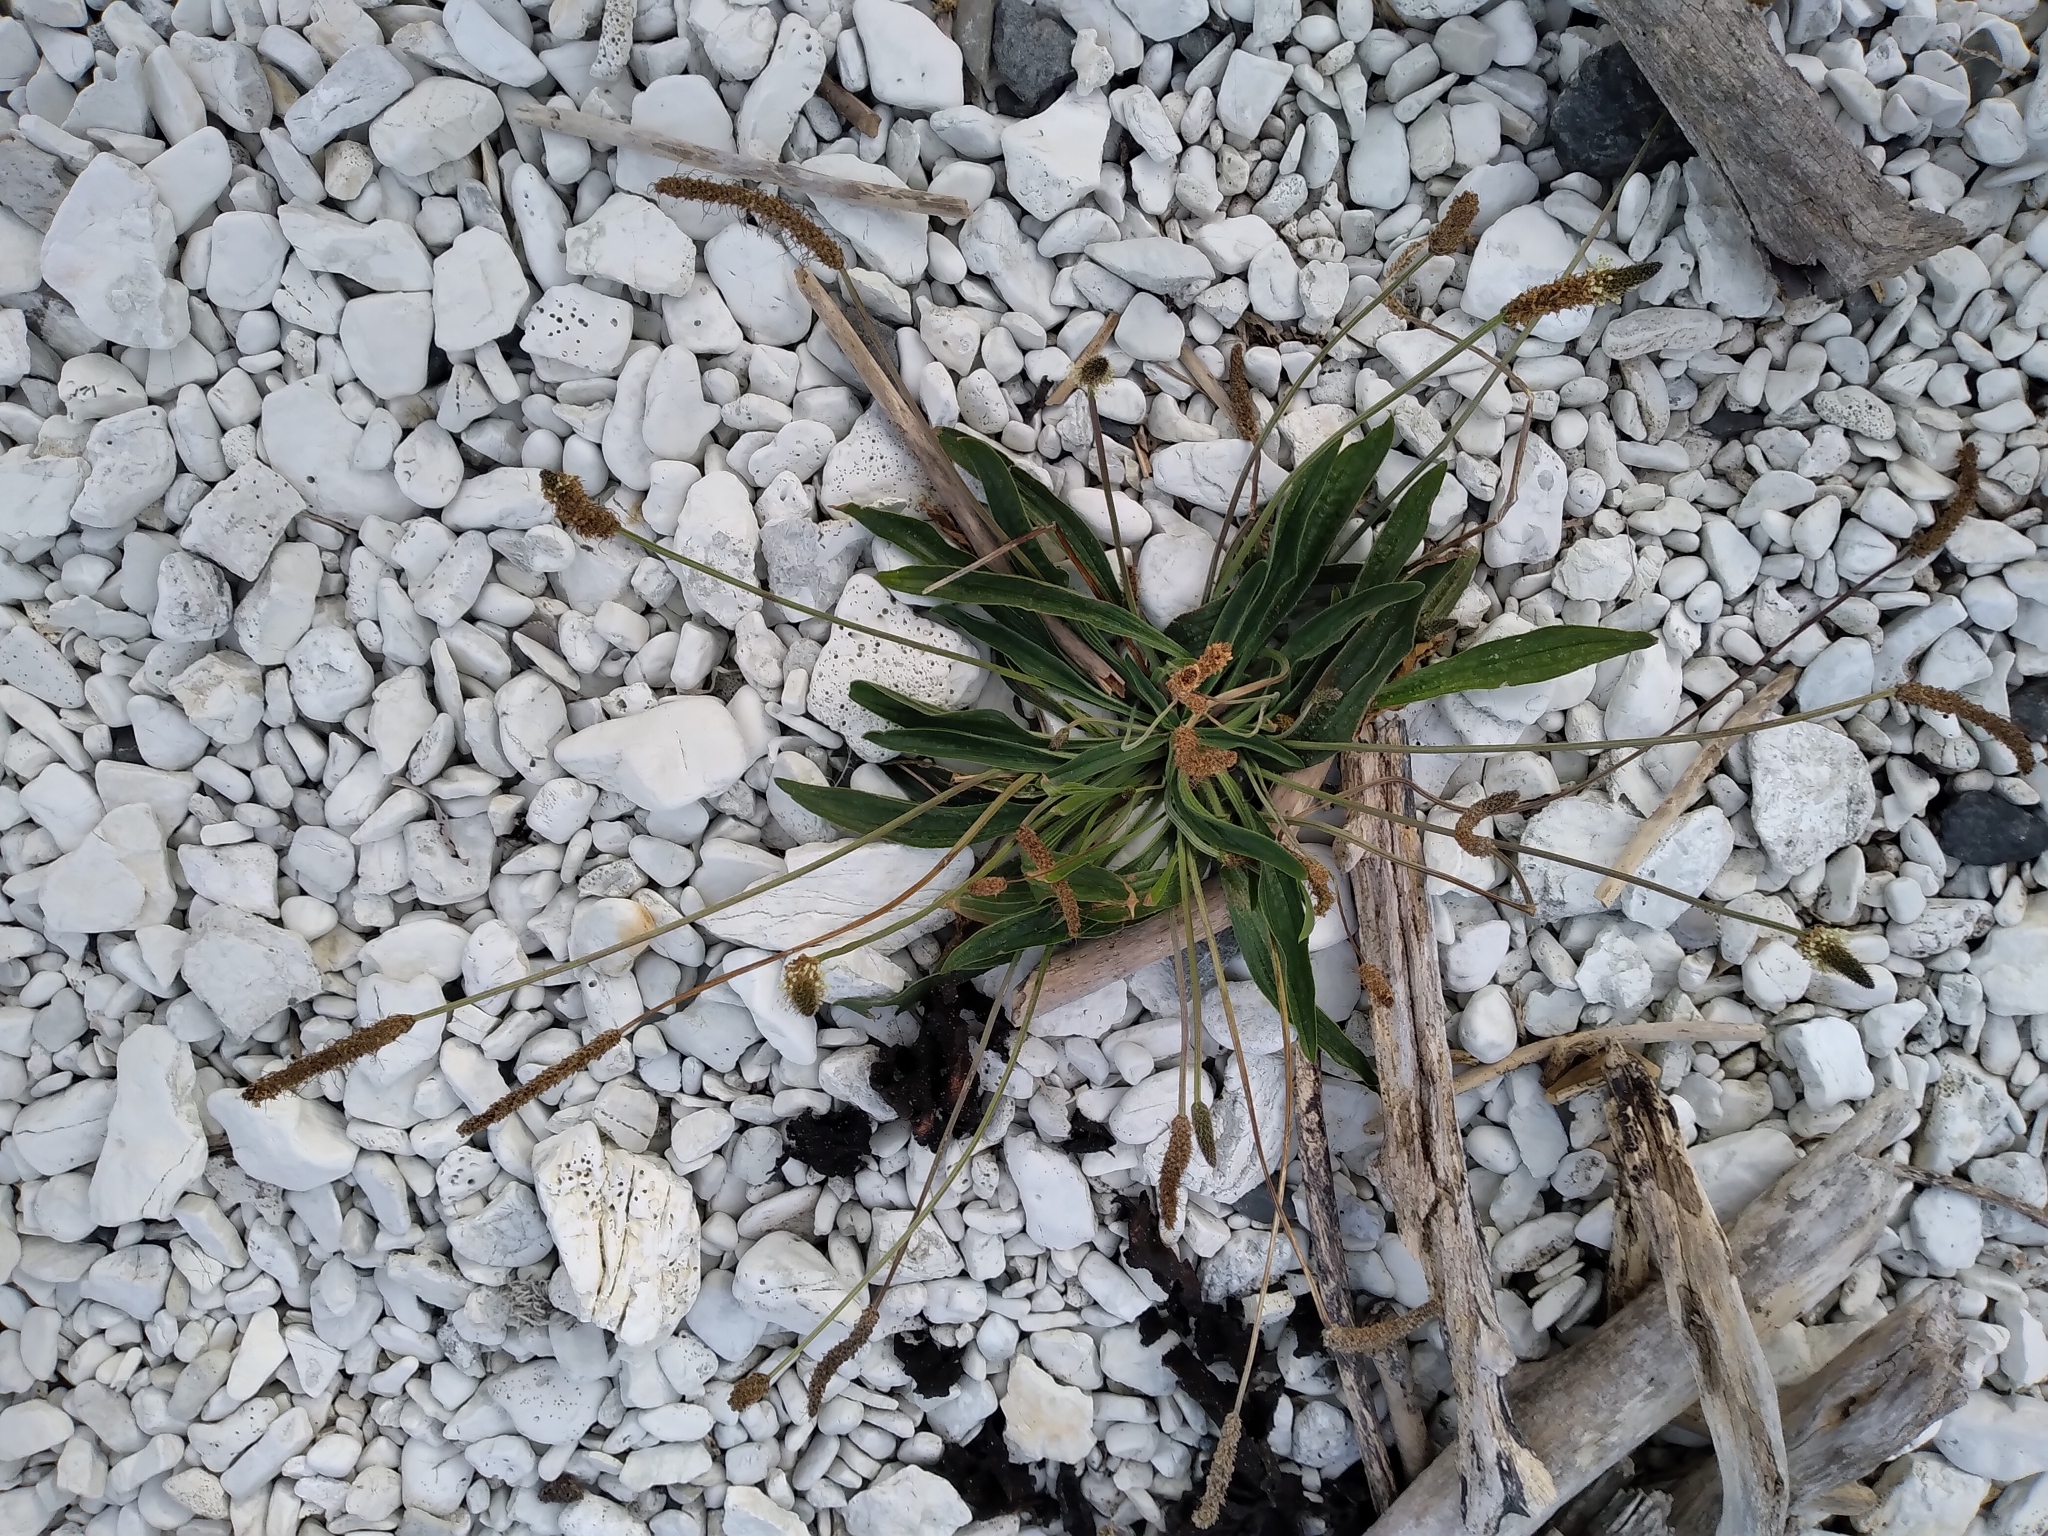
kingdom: Plantae
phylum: Tracheophyta
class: Magnoliopsida
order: Lamiales
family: Plantaginaceae
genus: Plantago
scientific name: Plantago lanceolata
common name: Ribwort plantain
